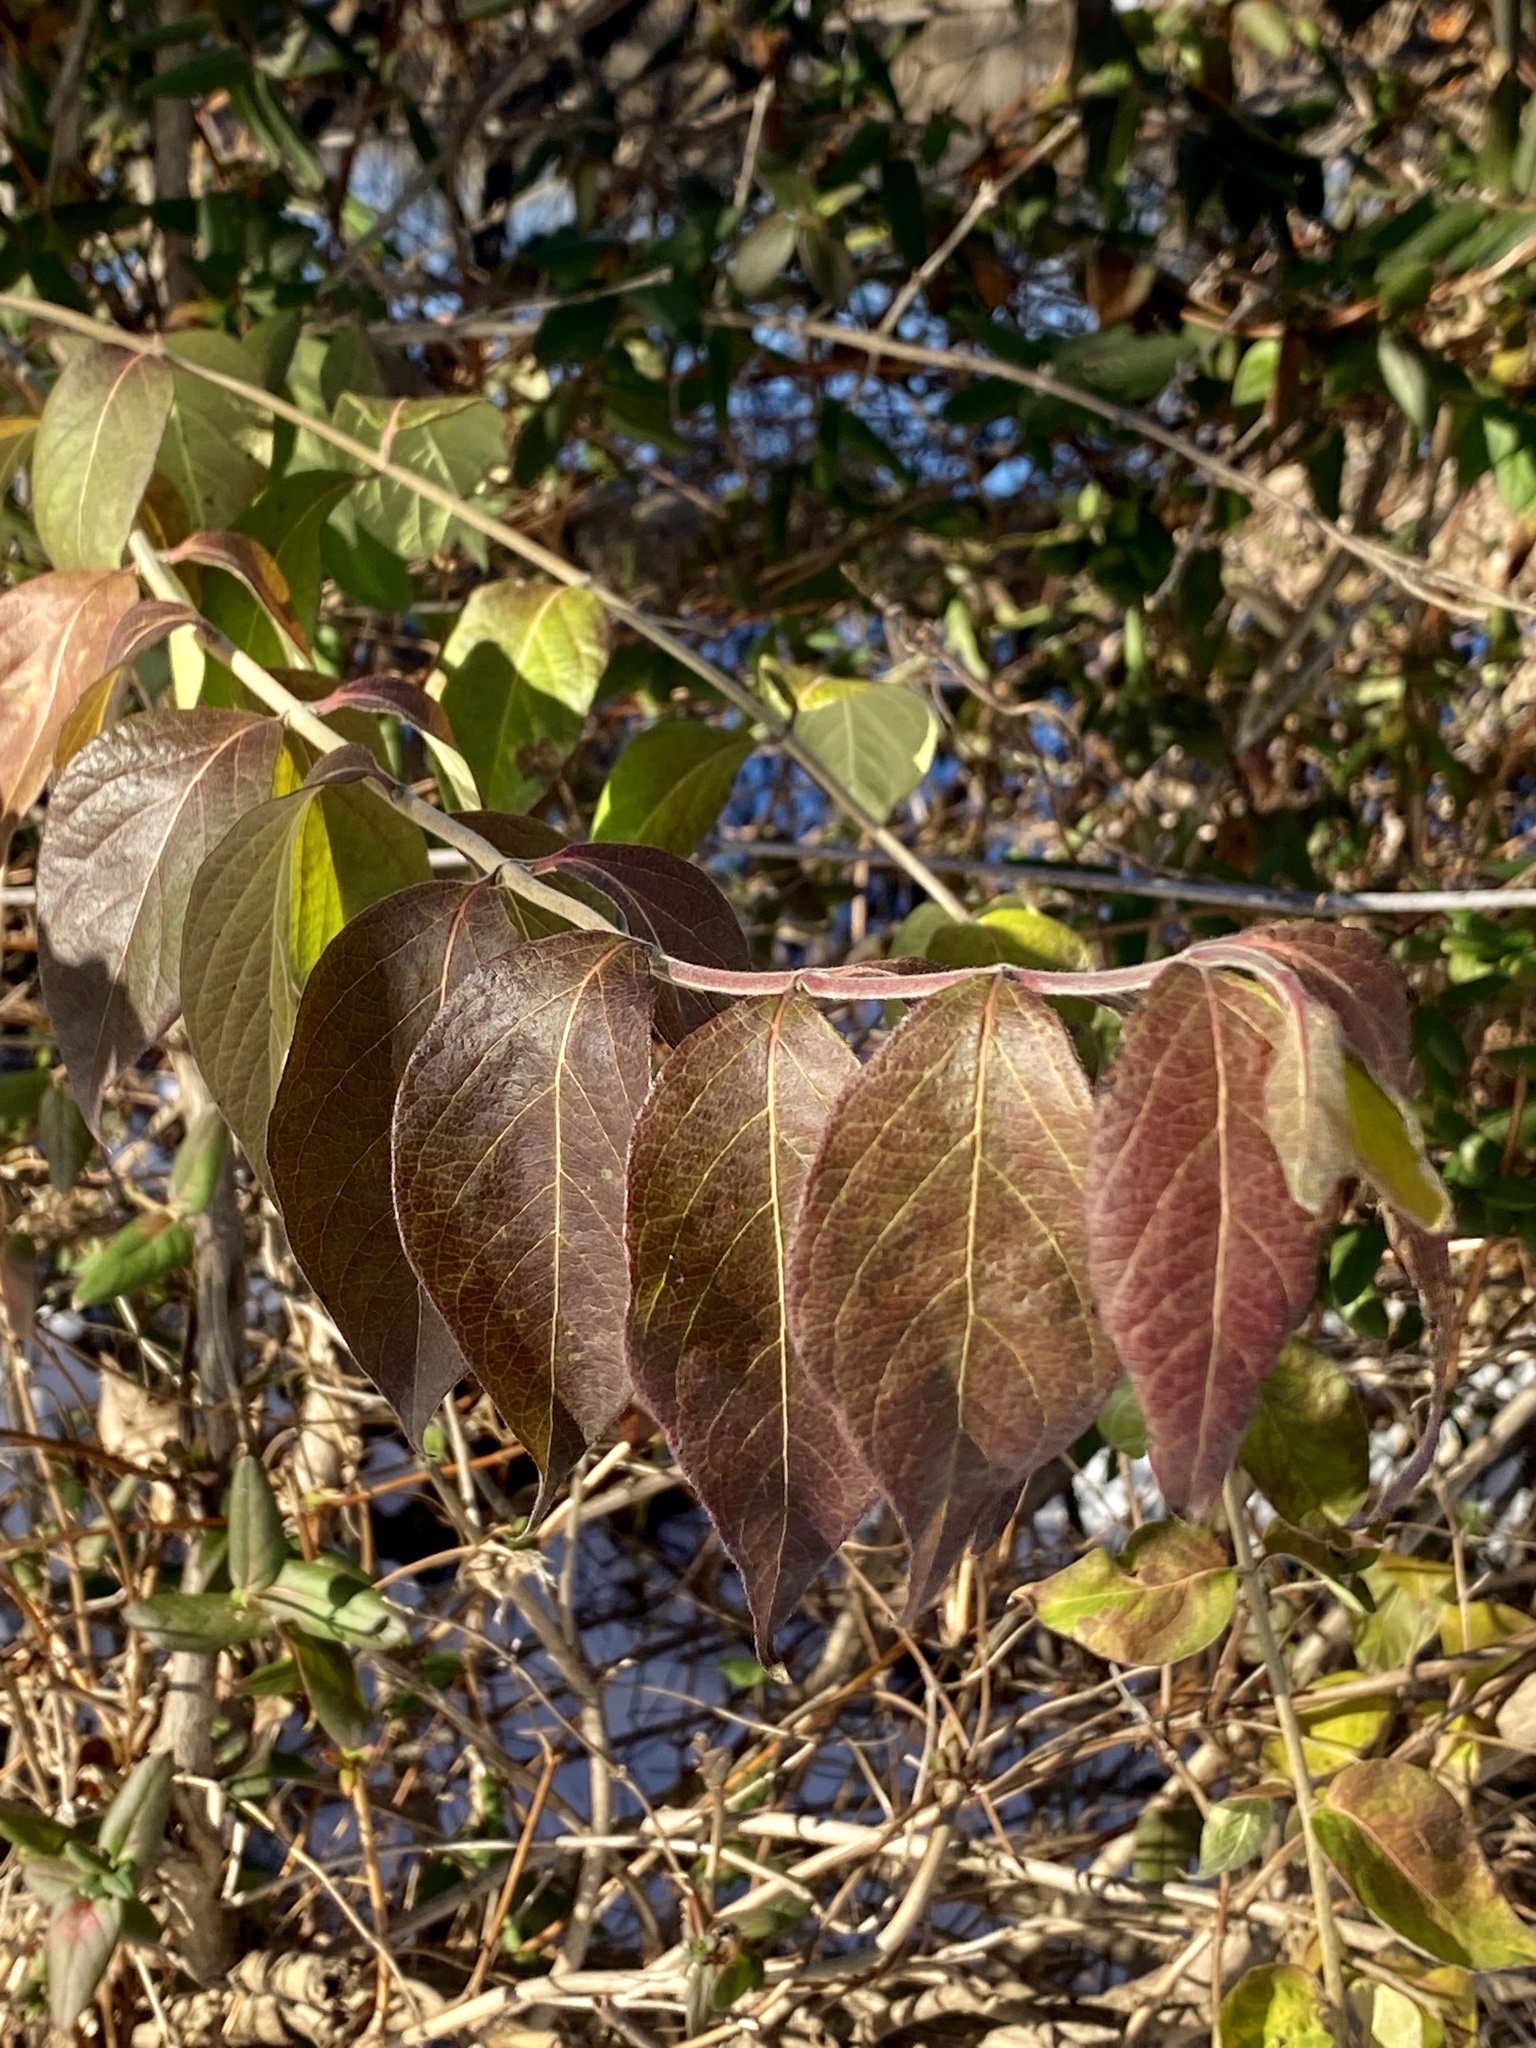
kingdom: Plantae
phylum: Tracheophyta
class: Magnoliopsida
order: Dipsacales
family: Caprifoliaceae
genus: Lonicera
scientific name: Lonicera maackii
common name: Amur honeysuckle
